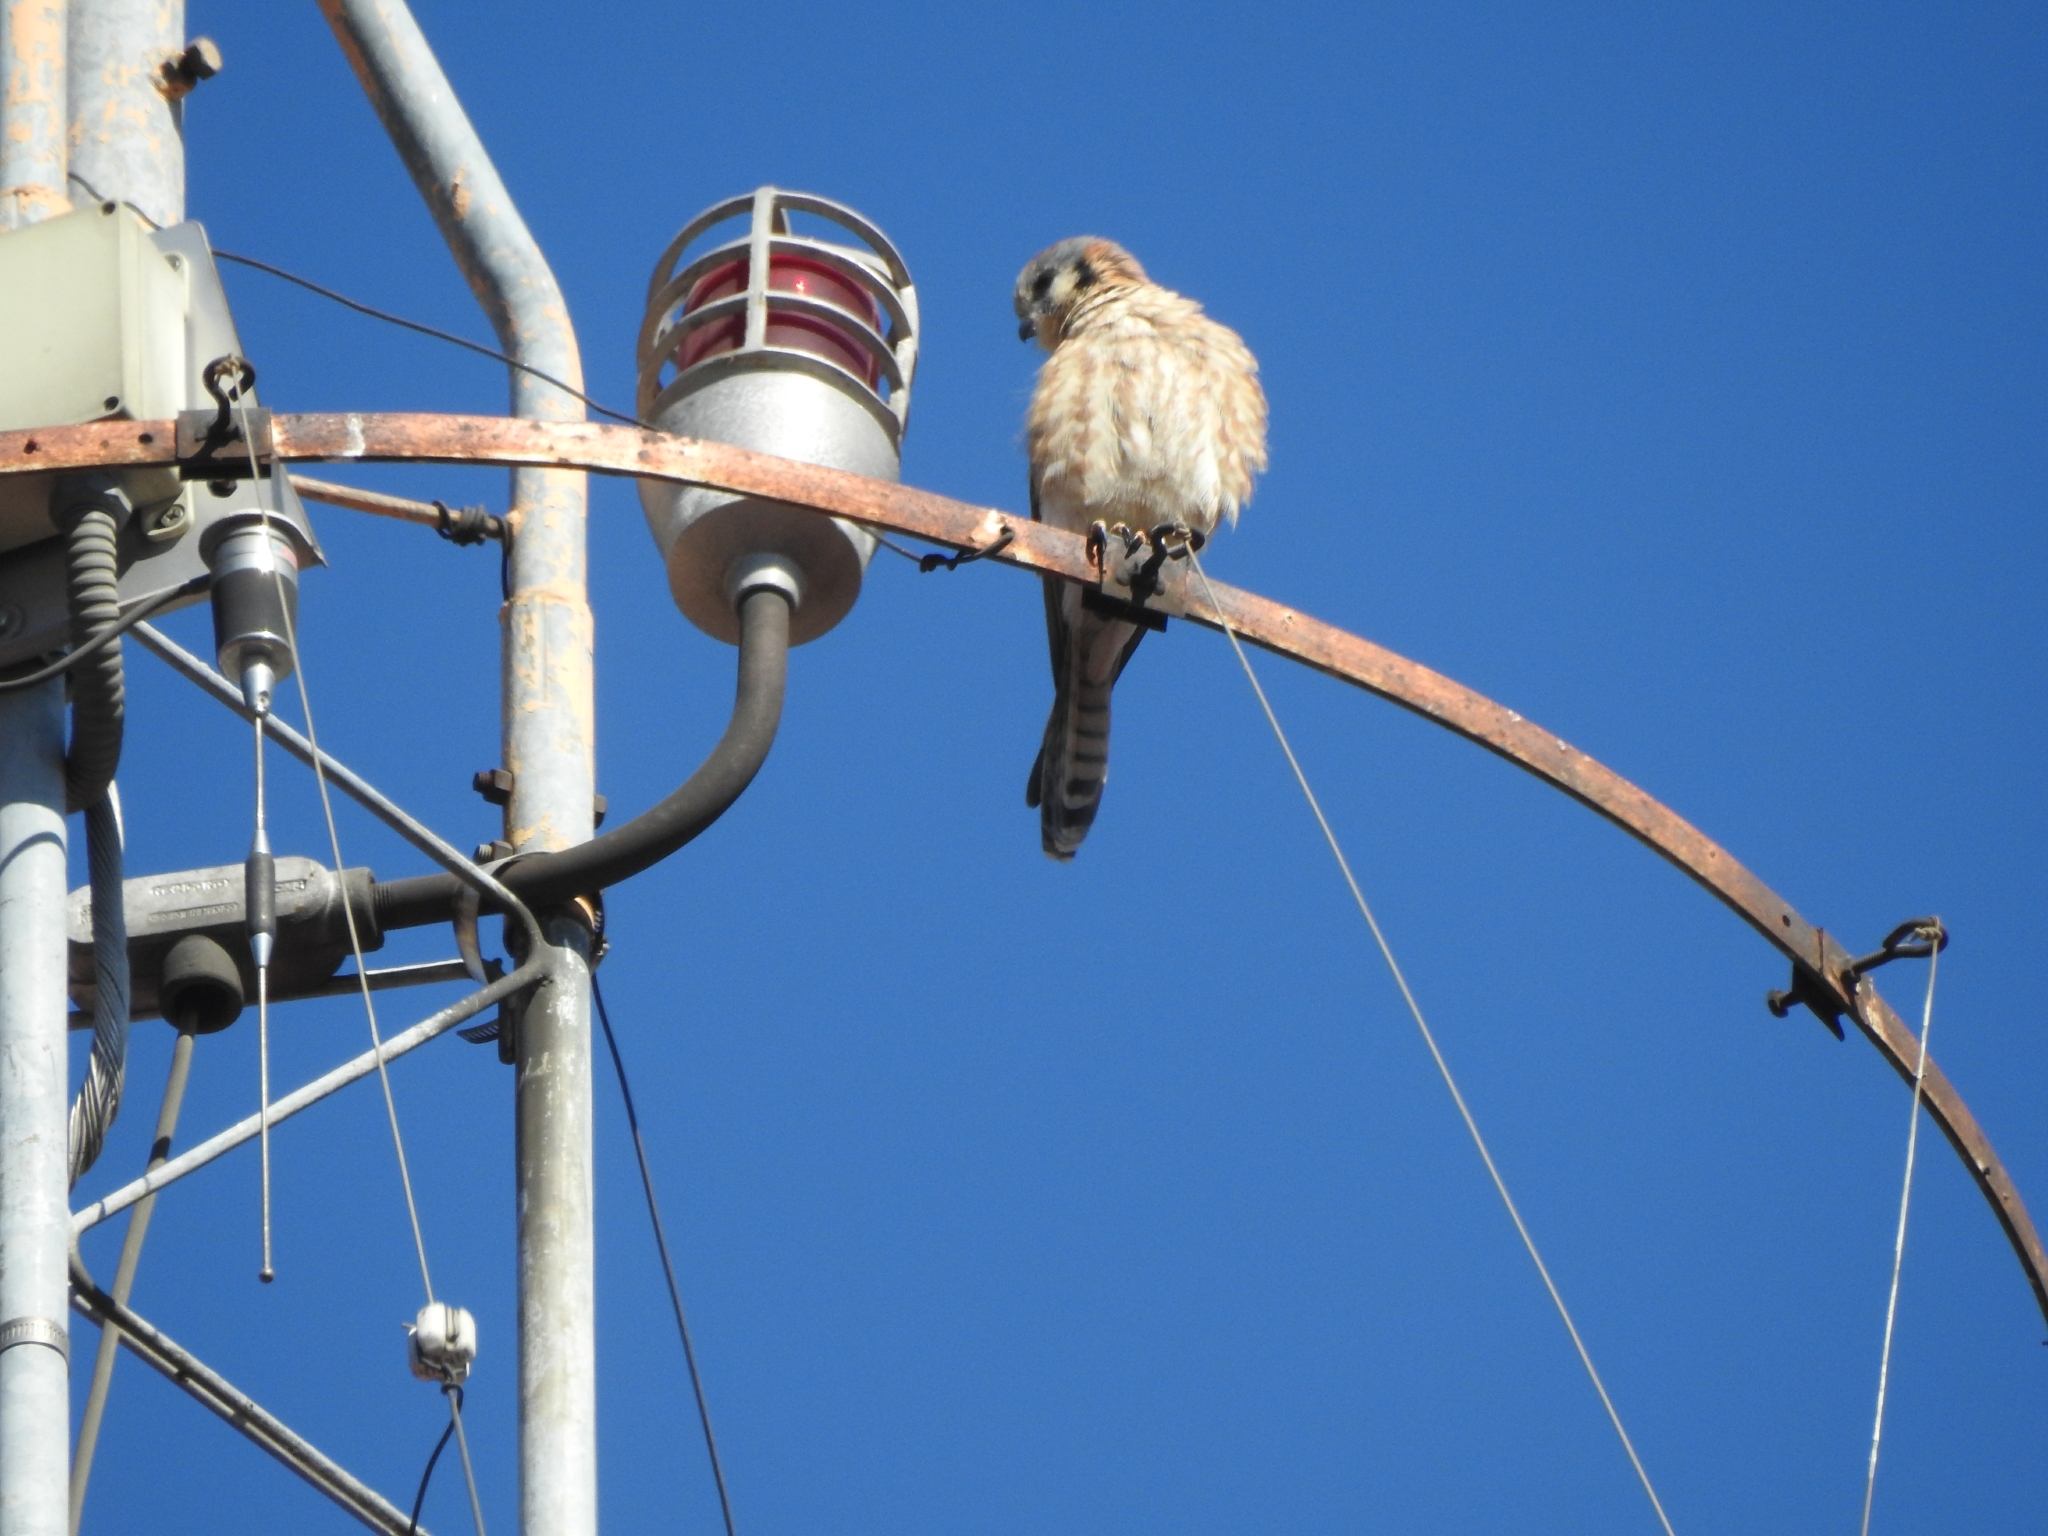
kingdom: Animalia
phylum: Chordata
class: Aves
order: Falconiformes
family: Falconidae
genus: Falco
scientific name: Falco sparverius
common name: American kestrel
